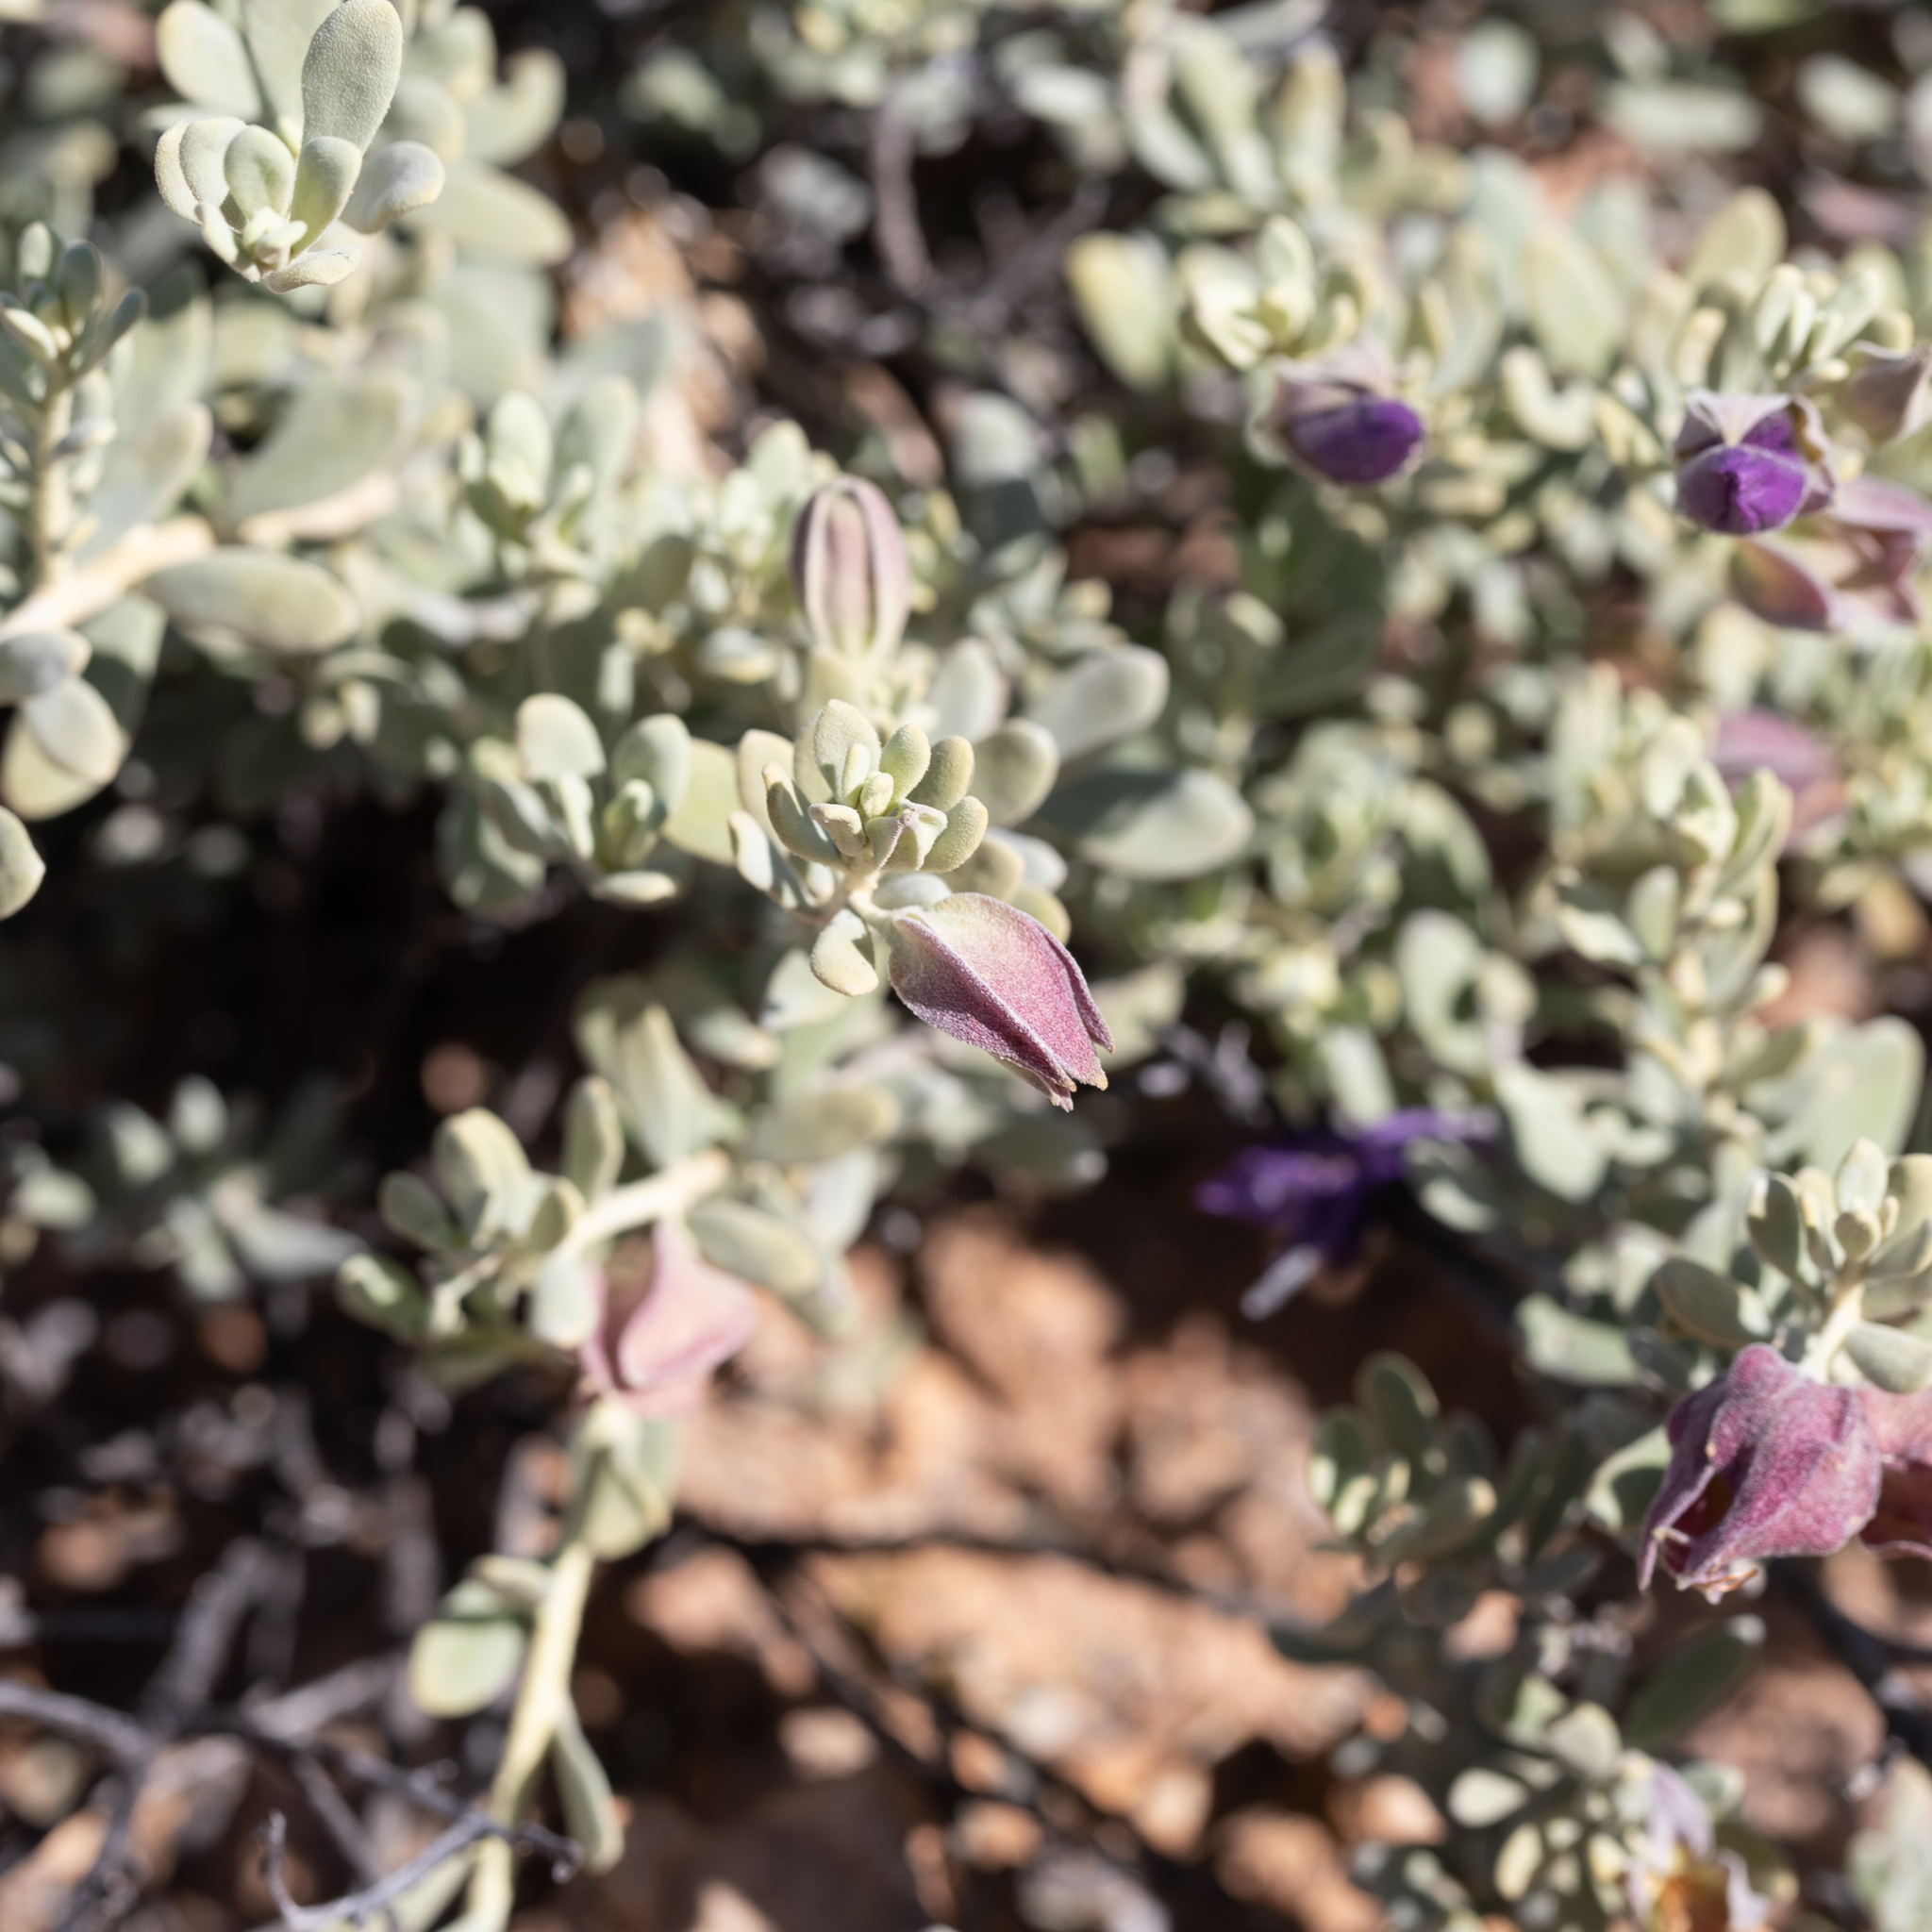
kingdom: Plantae
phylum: Tracheophyta
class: Magnoliopsida
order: Lamiales
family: Scrophulariaceae
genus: Eremophila
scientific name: Eremophila cordatisepala
